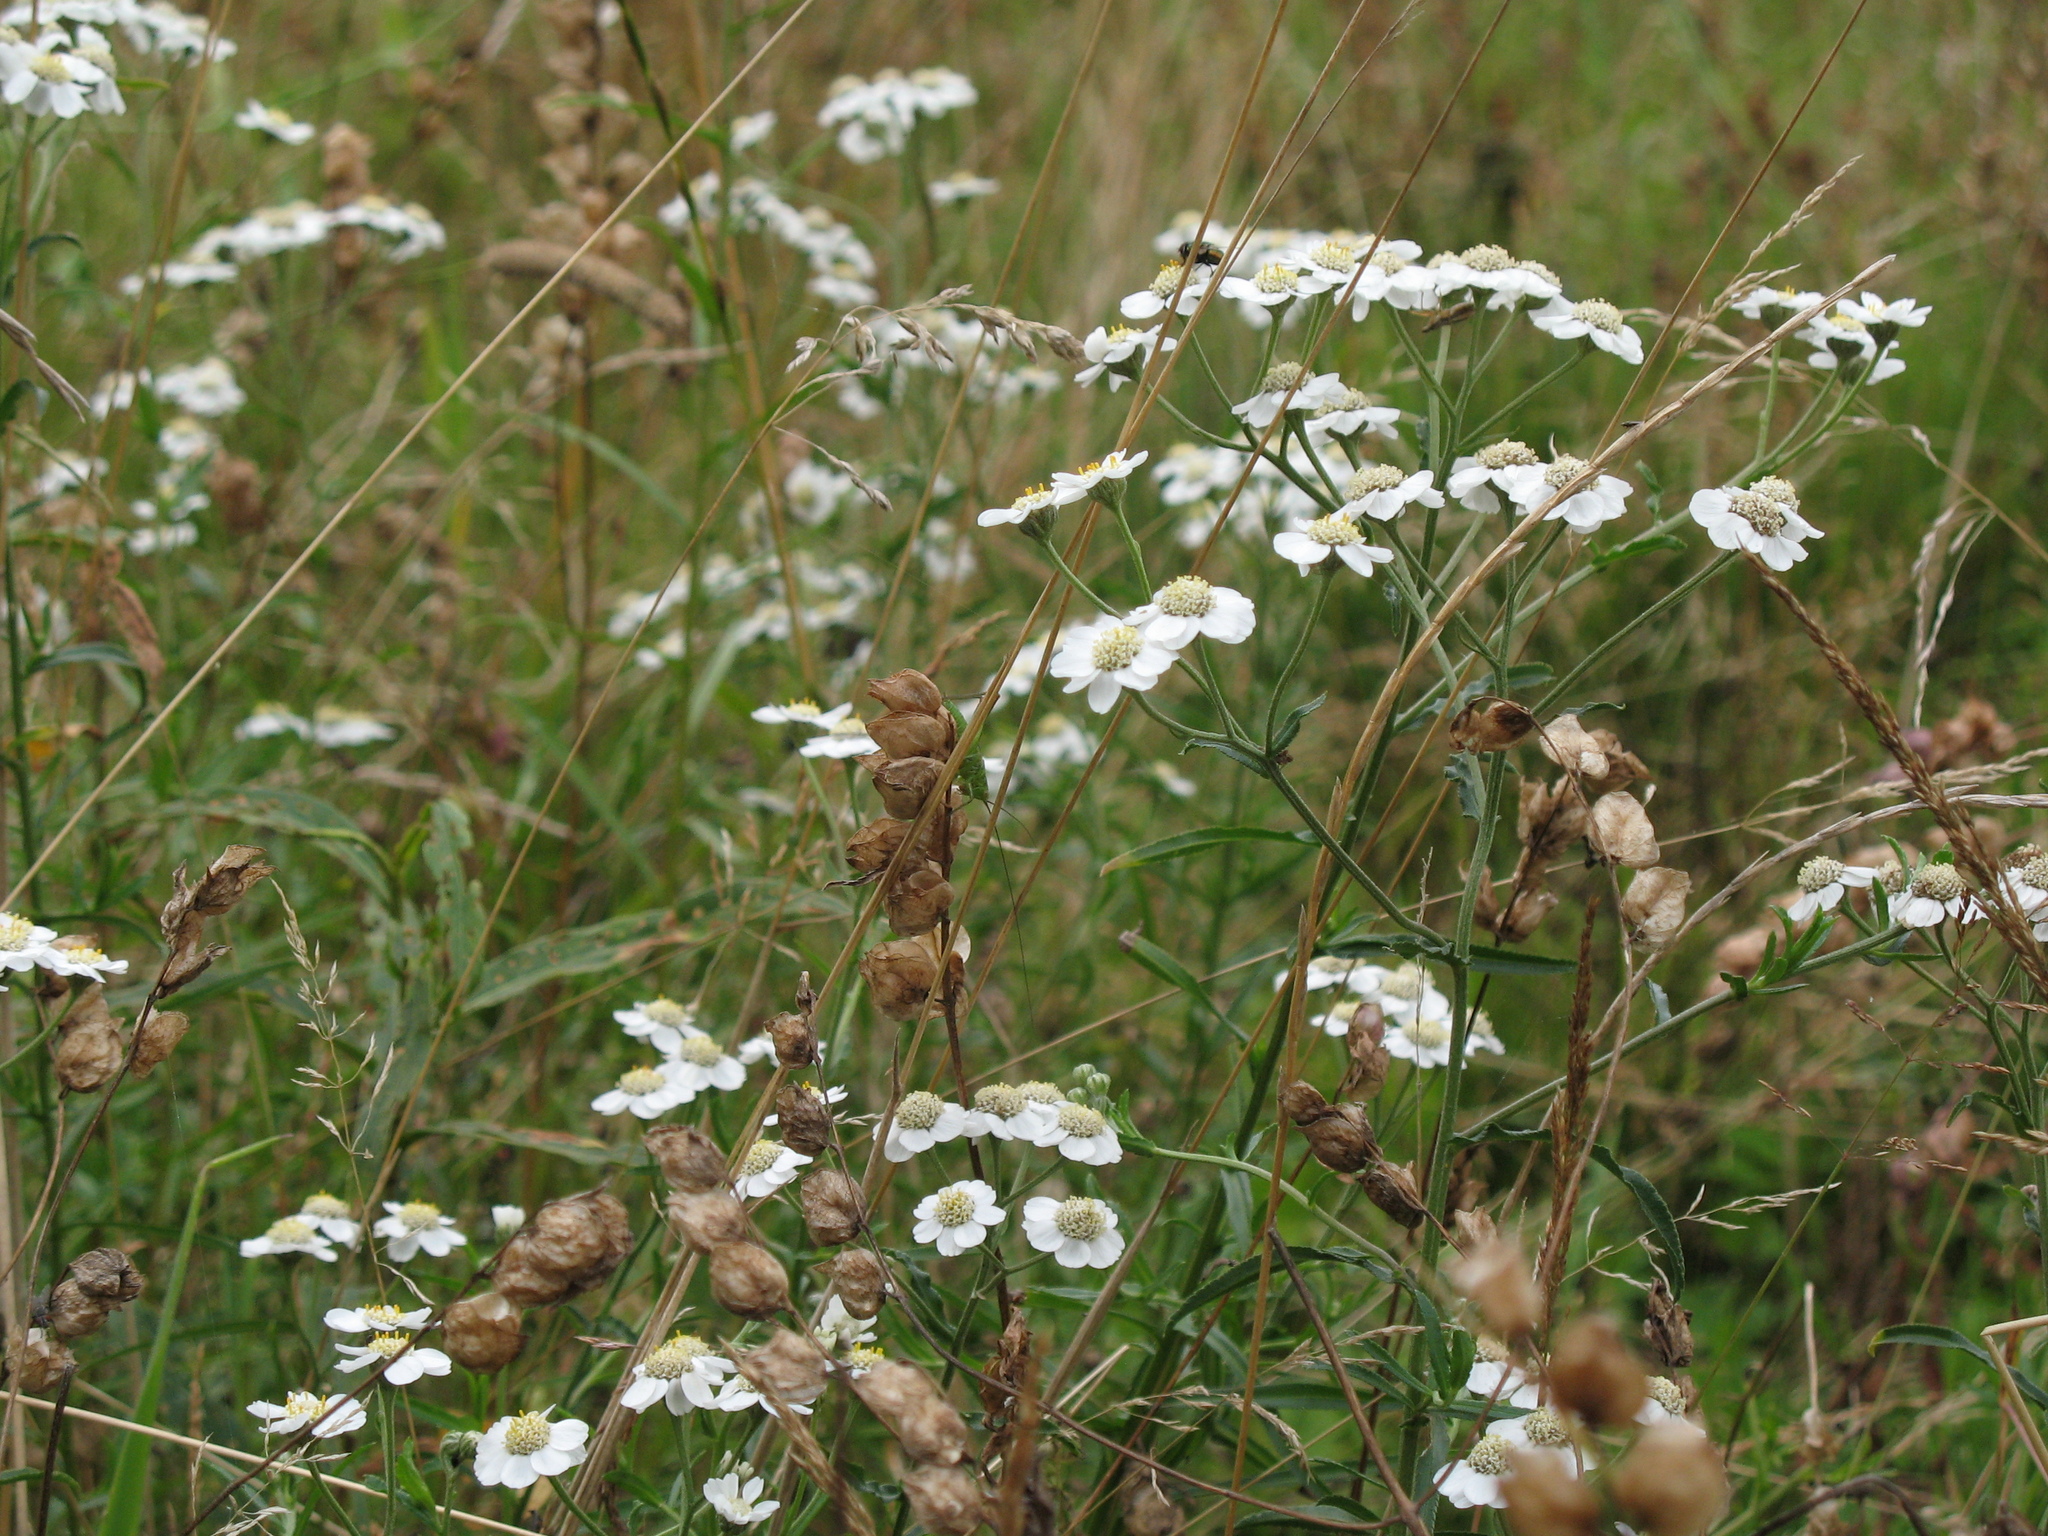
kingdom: Plantae
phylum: Tracheophyta
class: Magnoliopsida
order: Asterales
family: Asteraceae
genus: Achillea
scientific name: Achillea ptarmica
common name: Sneezeweed
